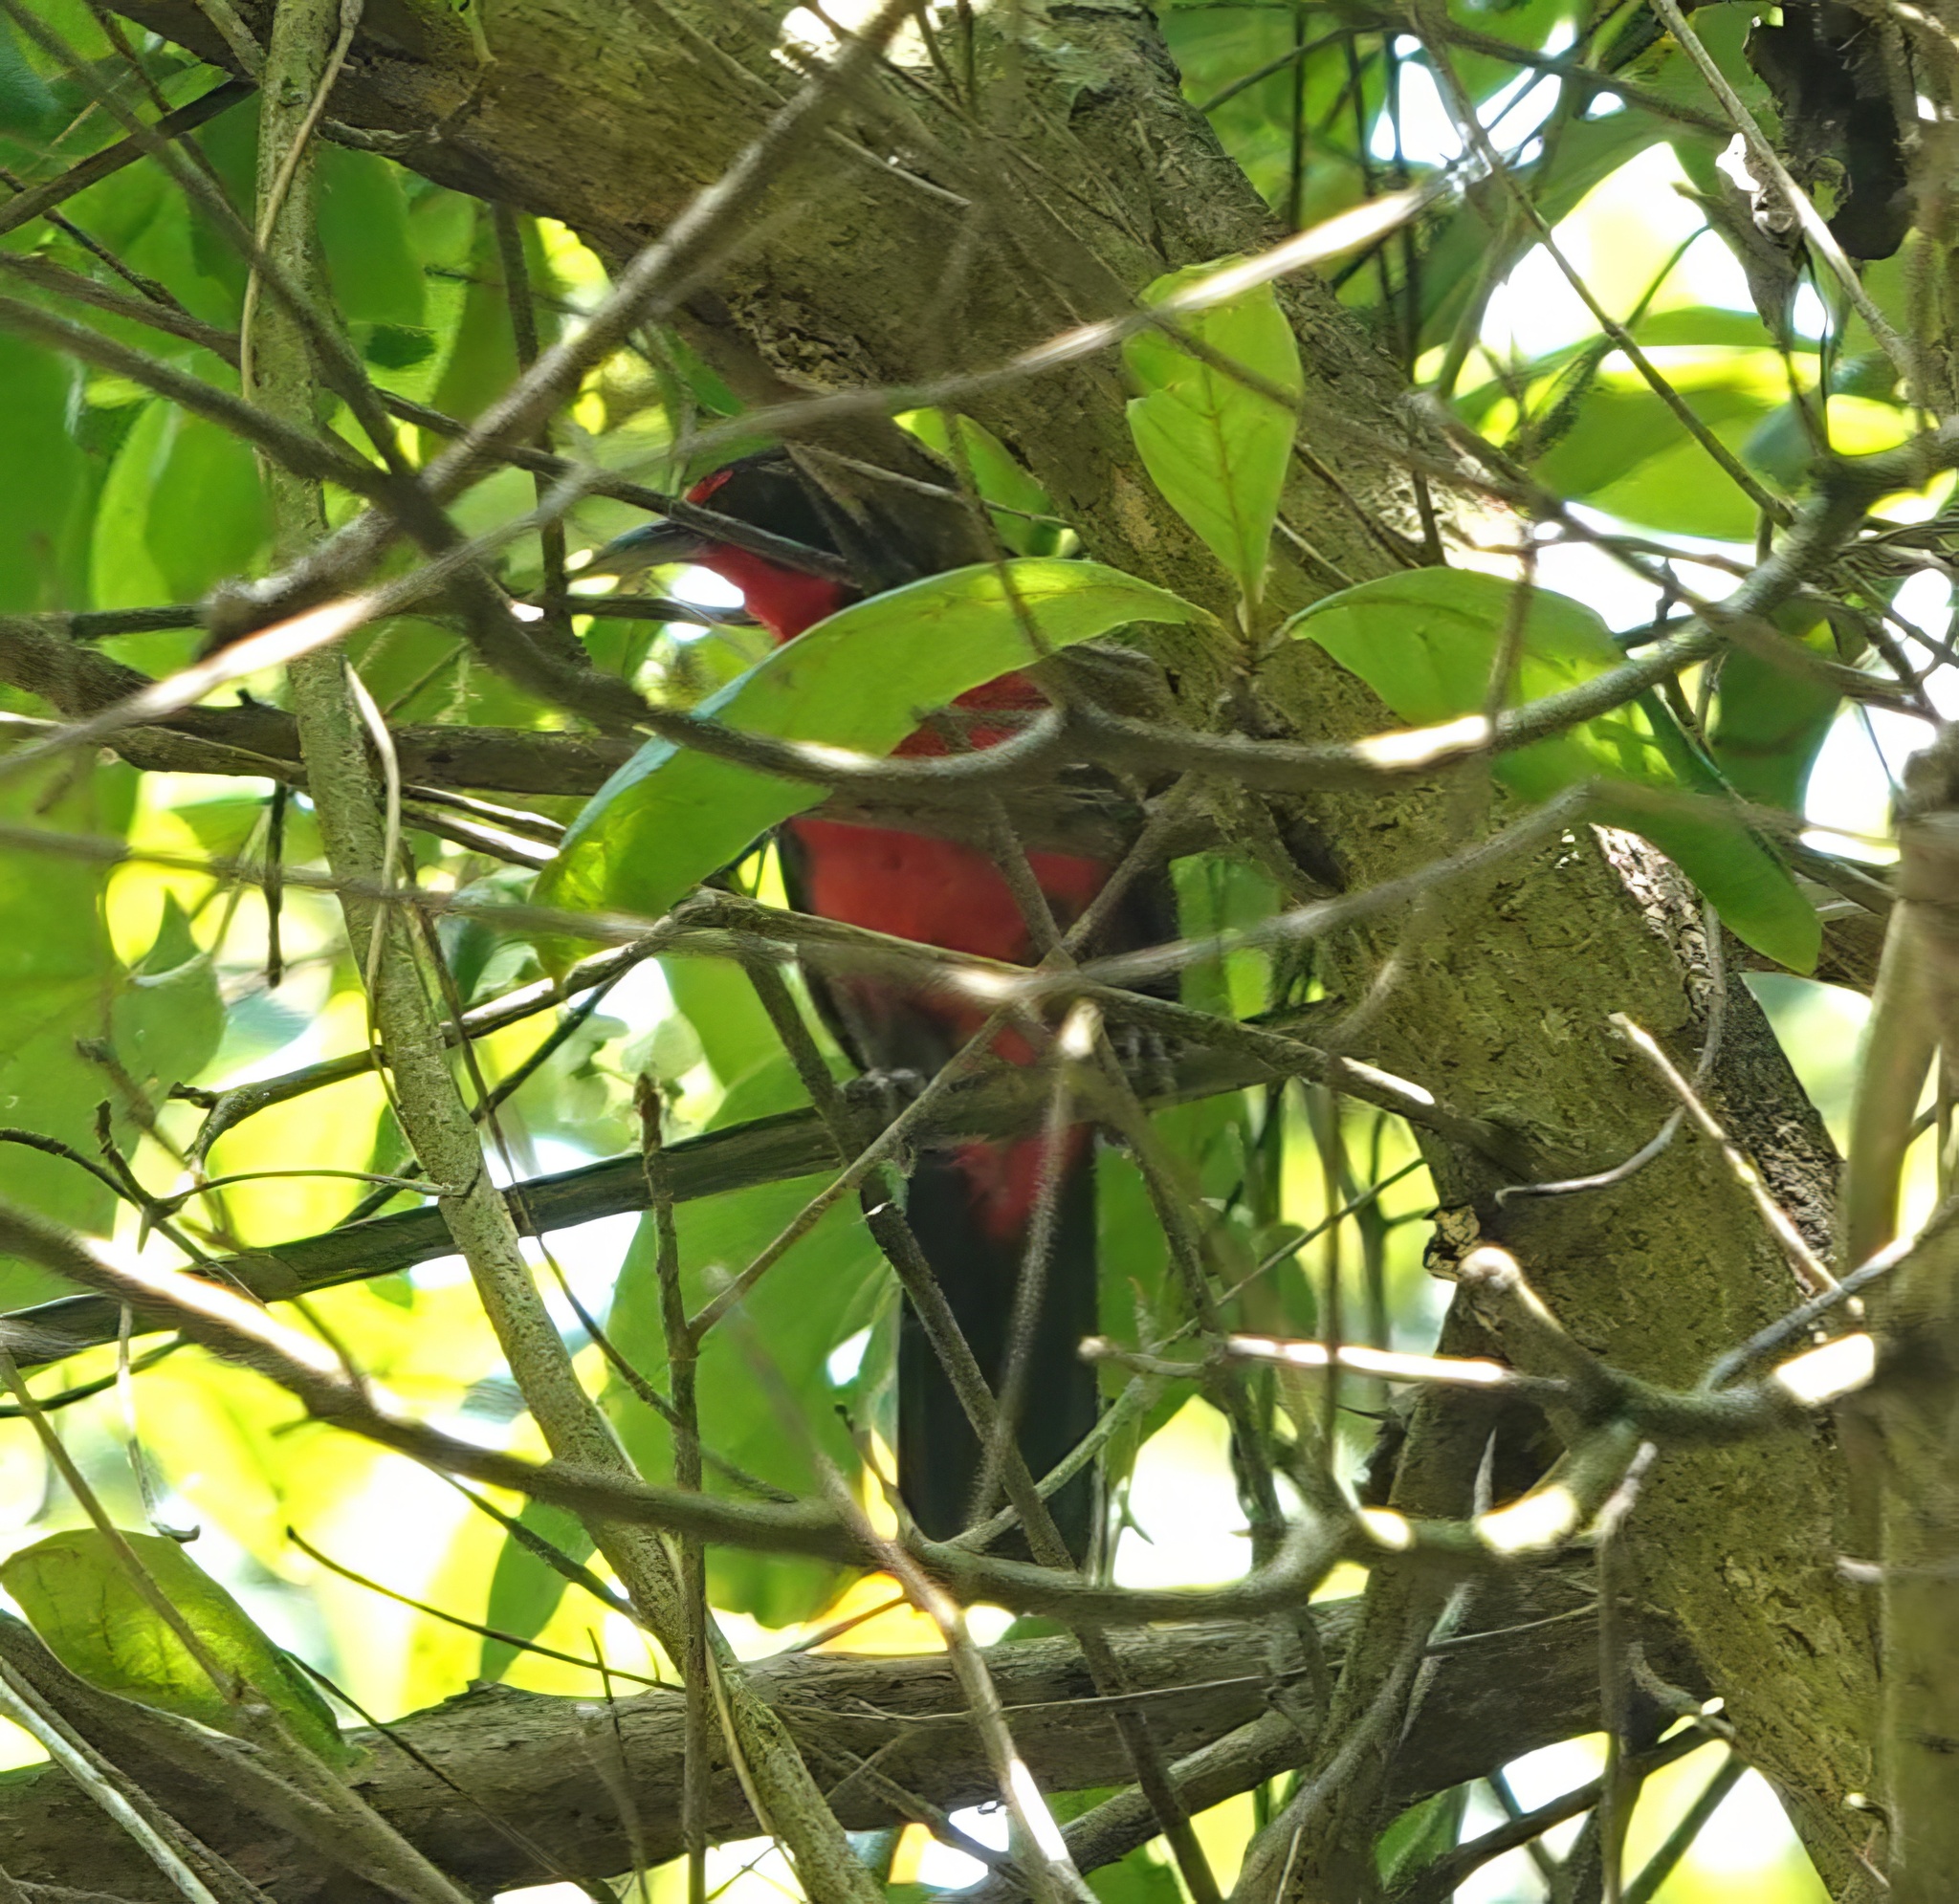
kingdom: Animalia
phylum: Chordata
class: Aves
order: Passeriformes
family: Rhodinocichlidae
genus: Rhodinocichla
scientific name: Rhodinocichla rosea
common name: Rosy thrush-tanager
